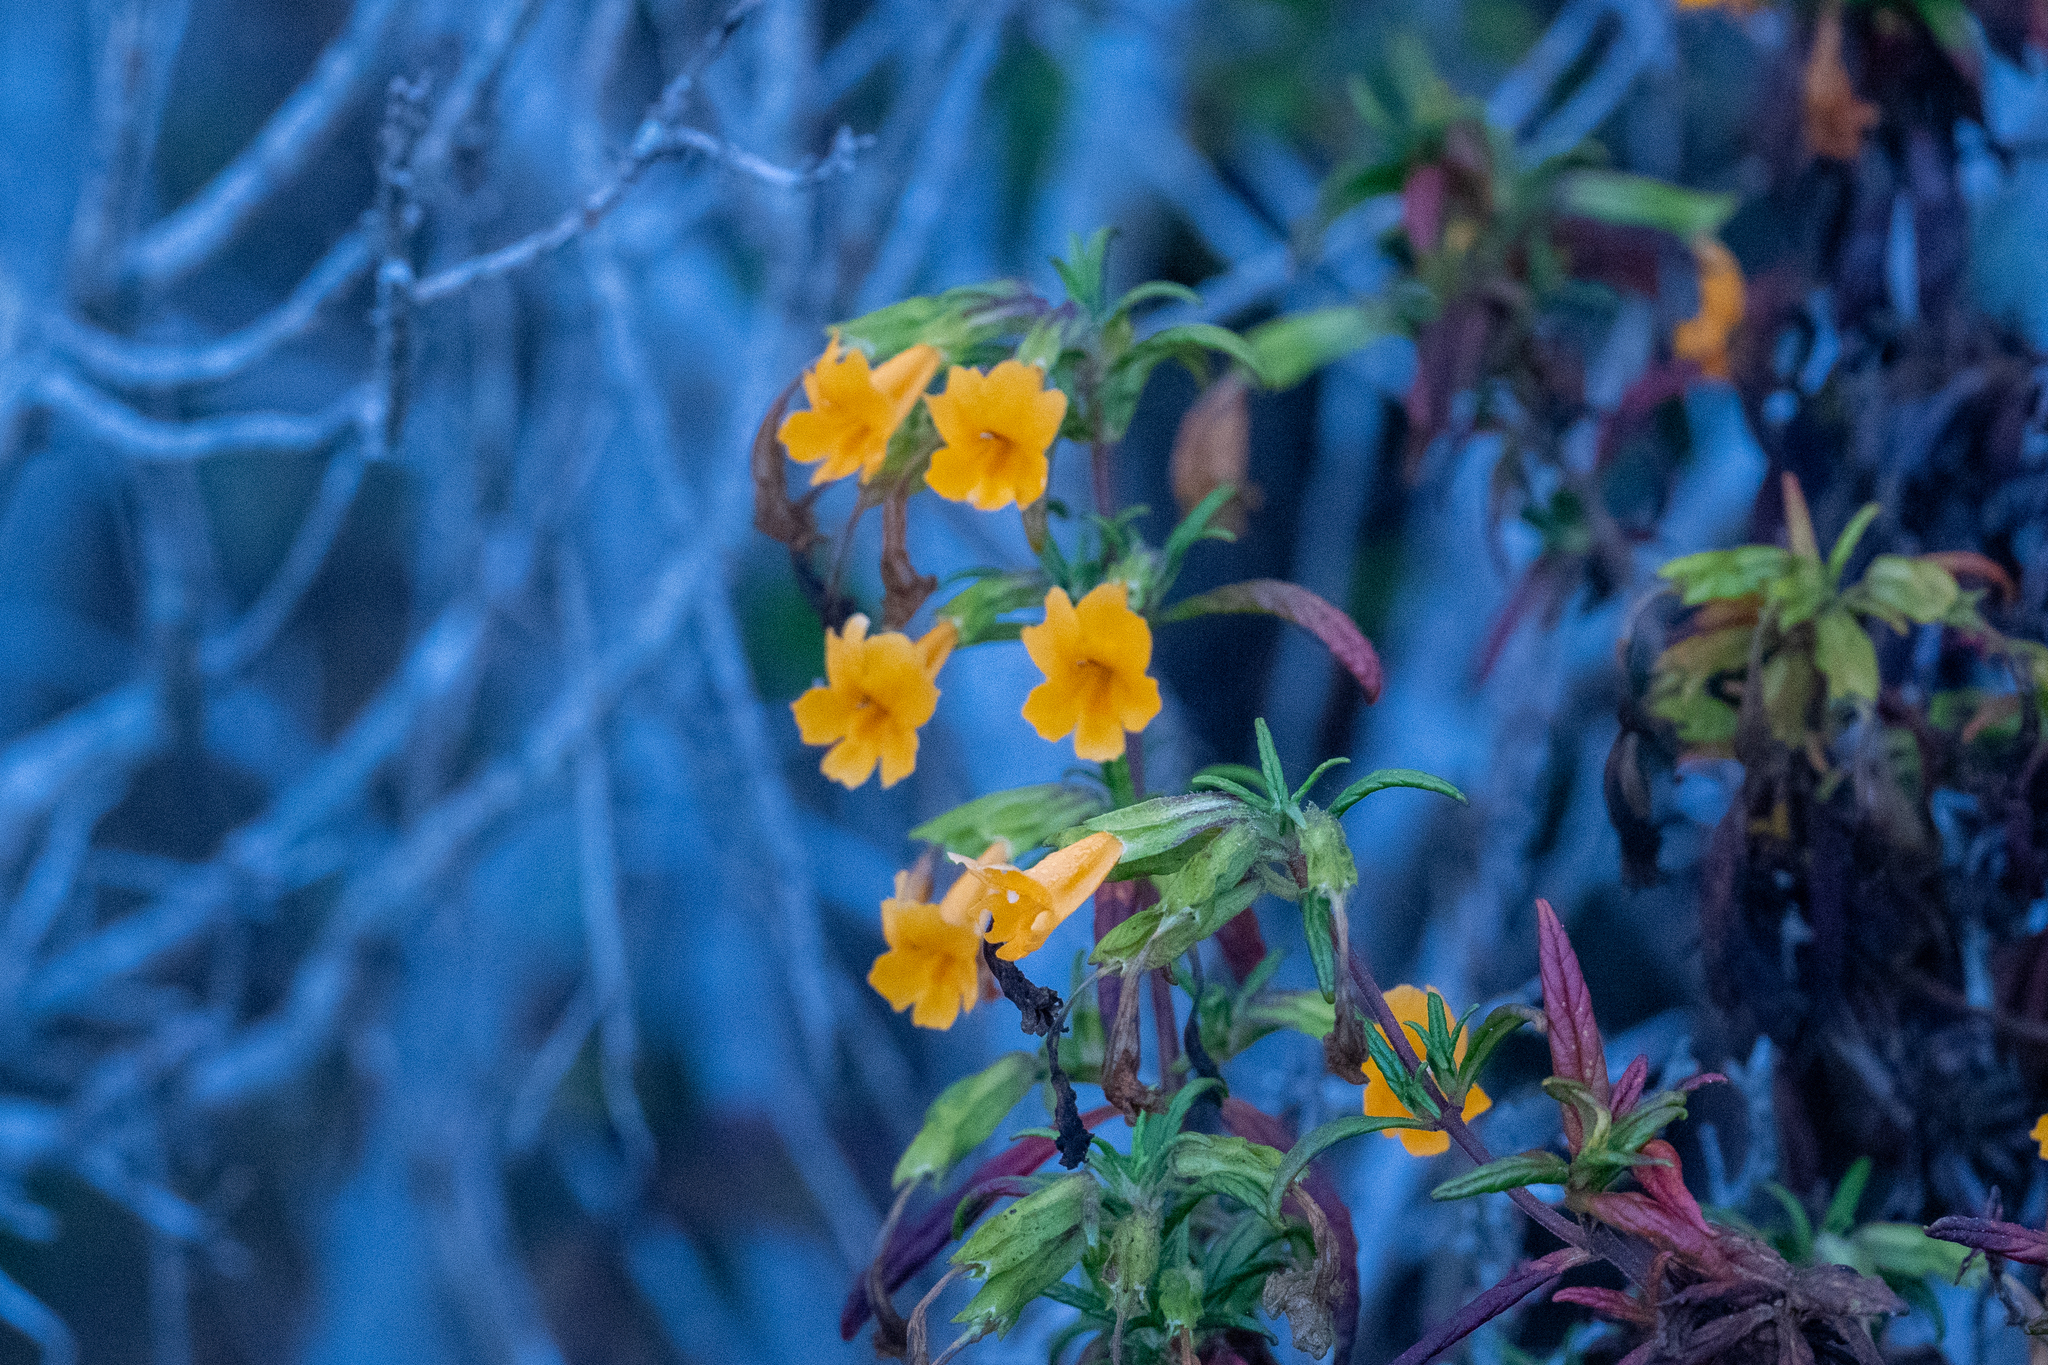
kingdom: Plantae
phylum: Tracheophyta
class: Magnoliopsida
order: Lamiales
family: Phrymaceae
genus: Diplacus
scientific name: Diplacus aurantiacus
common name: Bush monkey-flower
